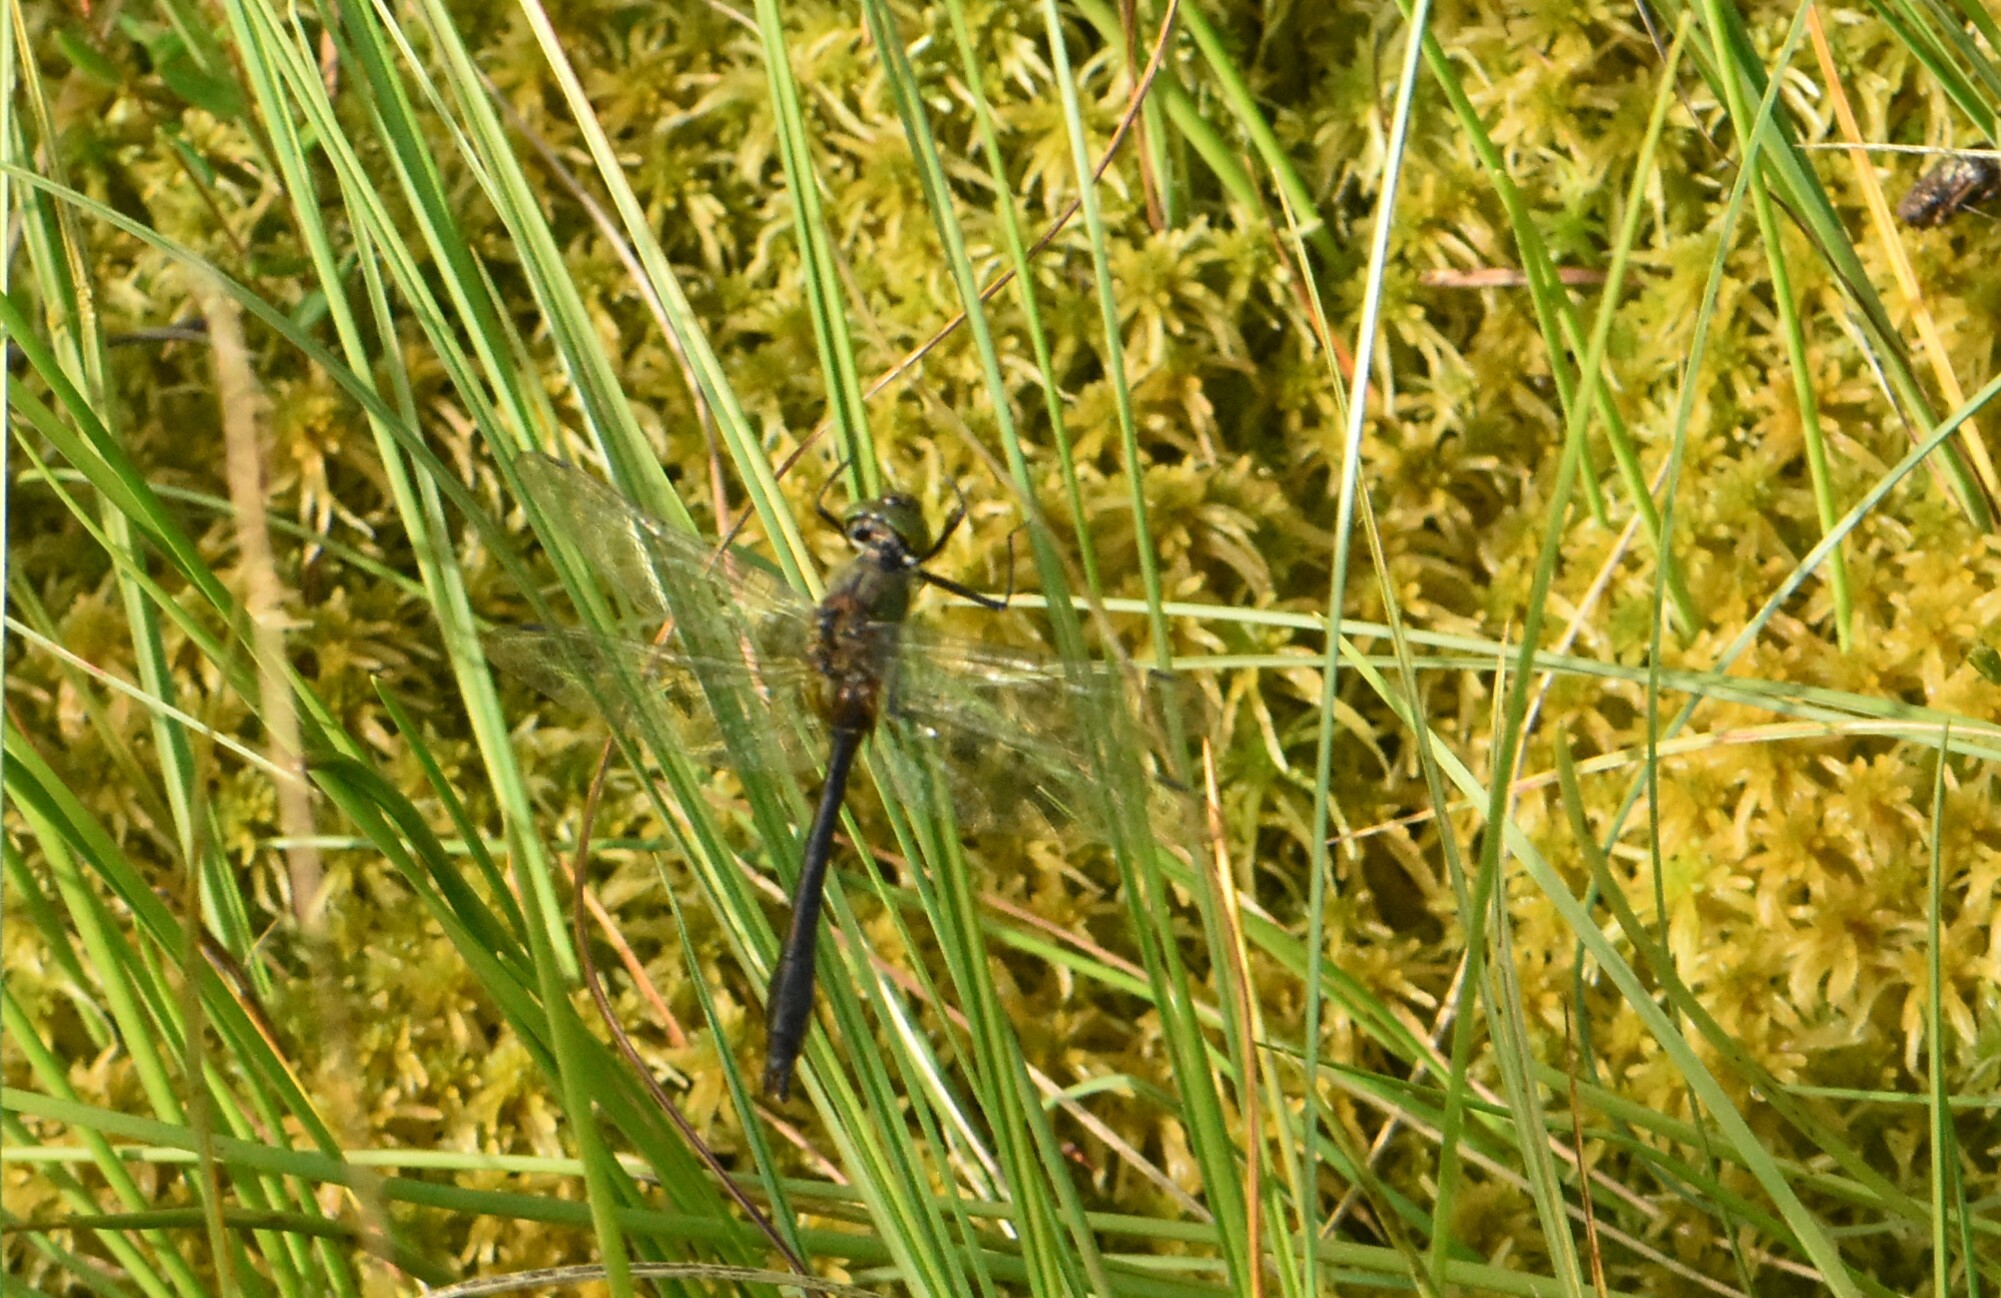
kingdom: Animalia
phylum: Arthropoda
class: Insecta
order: Odonata
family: Corduliidae
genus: Cordulia
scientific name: Cordulia aenea
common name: Downy emerald
